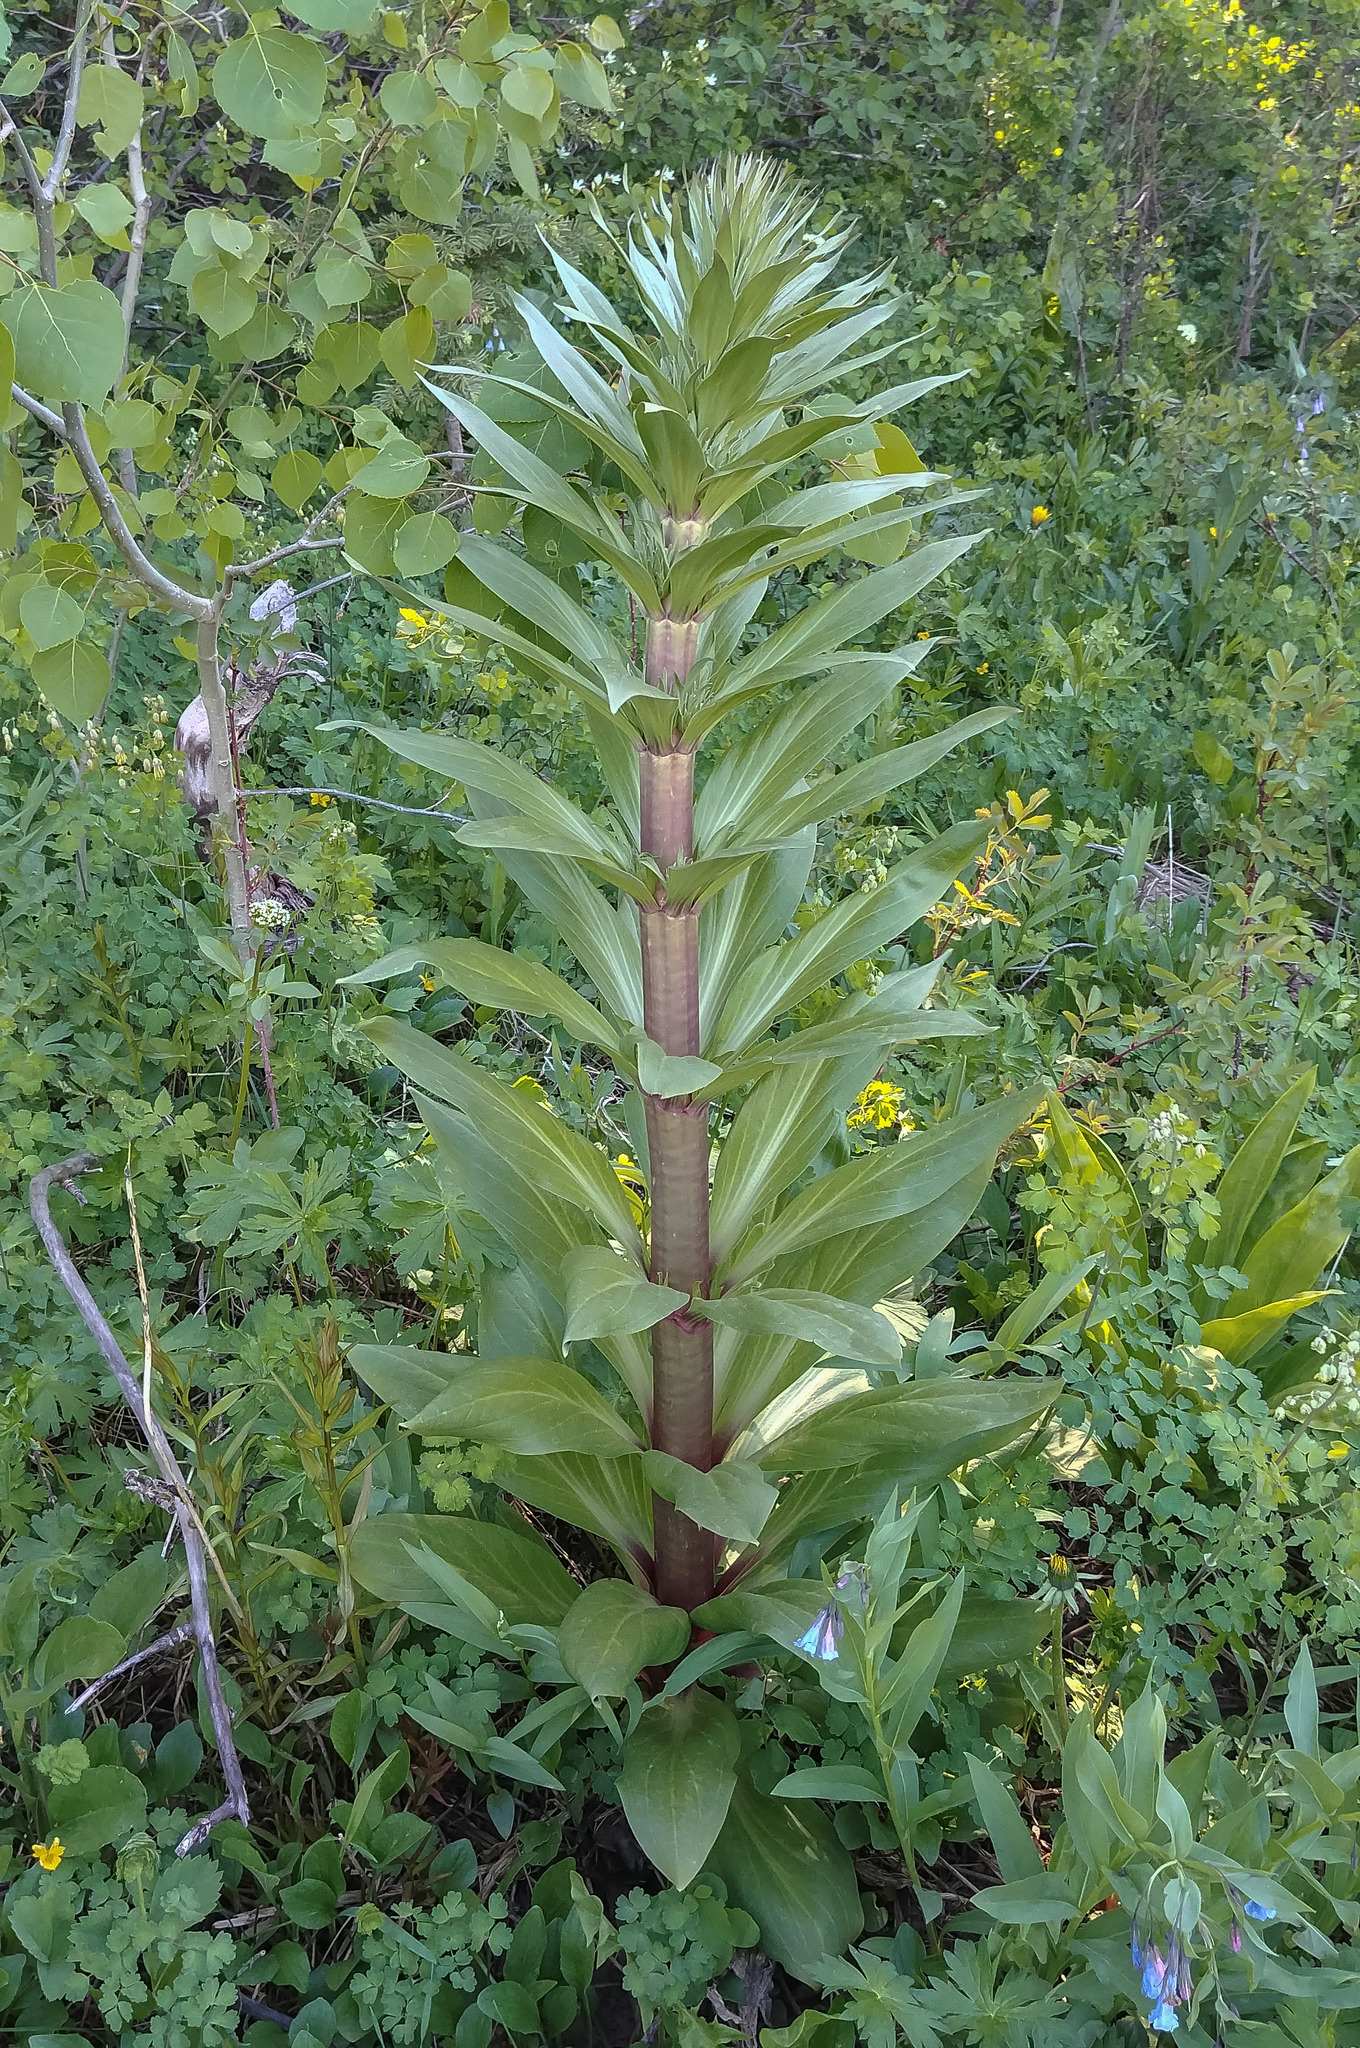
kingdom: Plantae
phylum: Tracheophyta
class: Magnoliopsida
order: Gentianales
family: Gentianaceae
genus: Frasera
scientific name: Frasera speciosa
